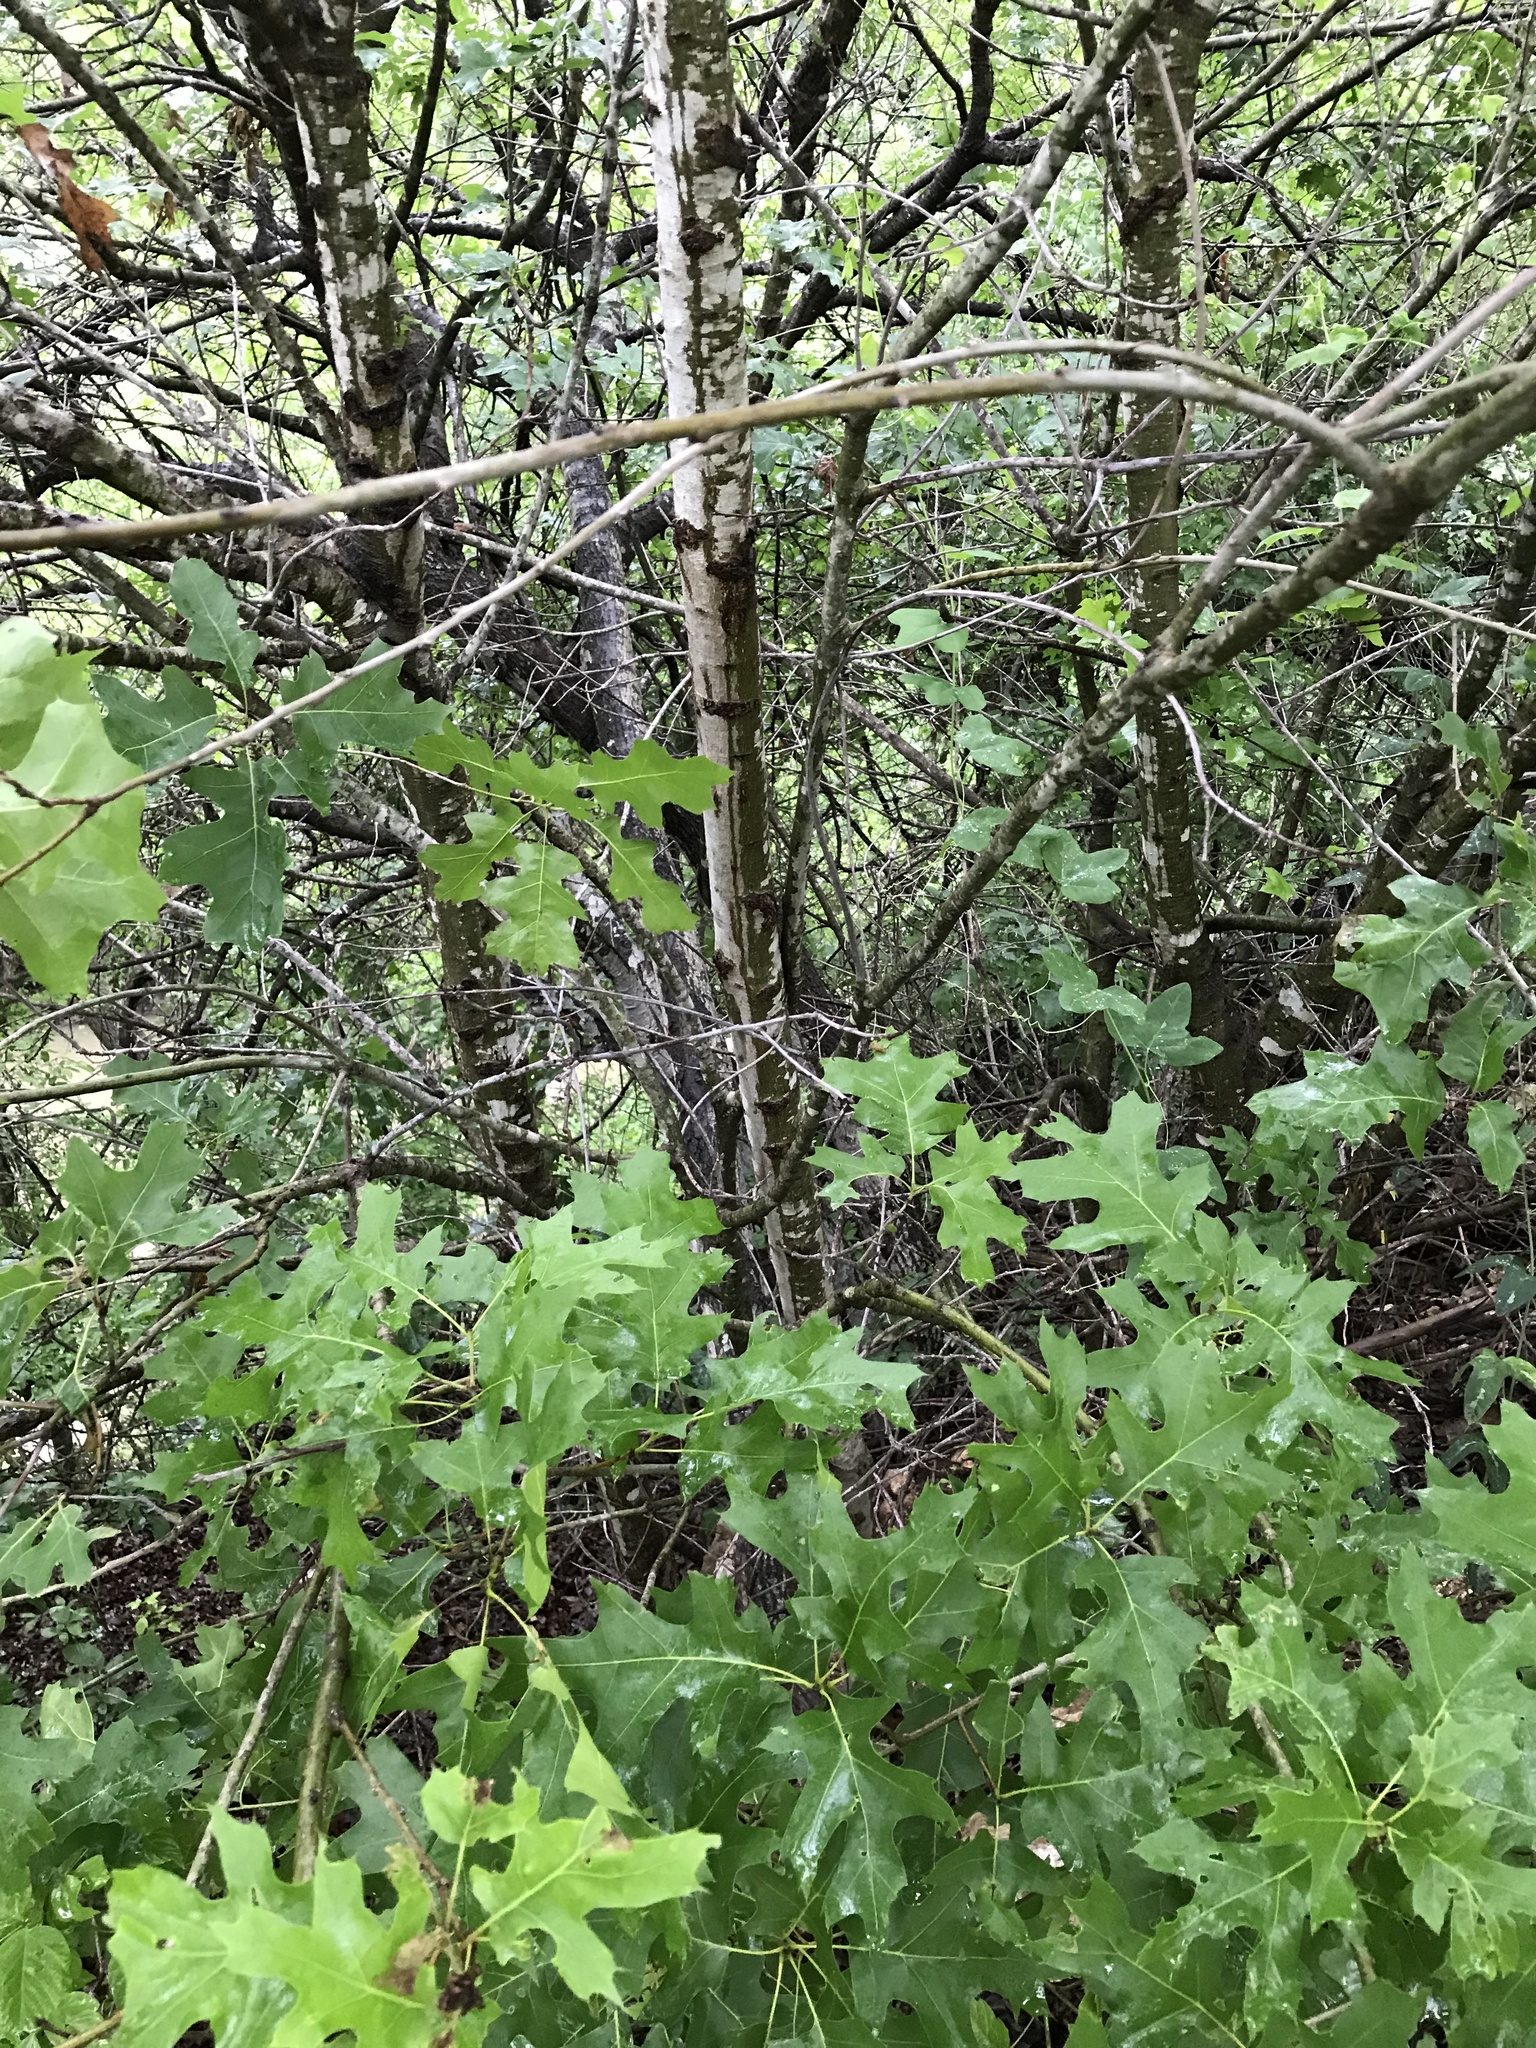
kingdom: Plantae
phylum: Tracheophyta
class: Magnoliopsida
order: Fagales
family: Fagaceae
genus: Quercus
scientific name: Quercus buckleyi
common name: Buckley oak
